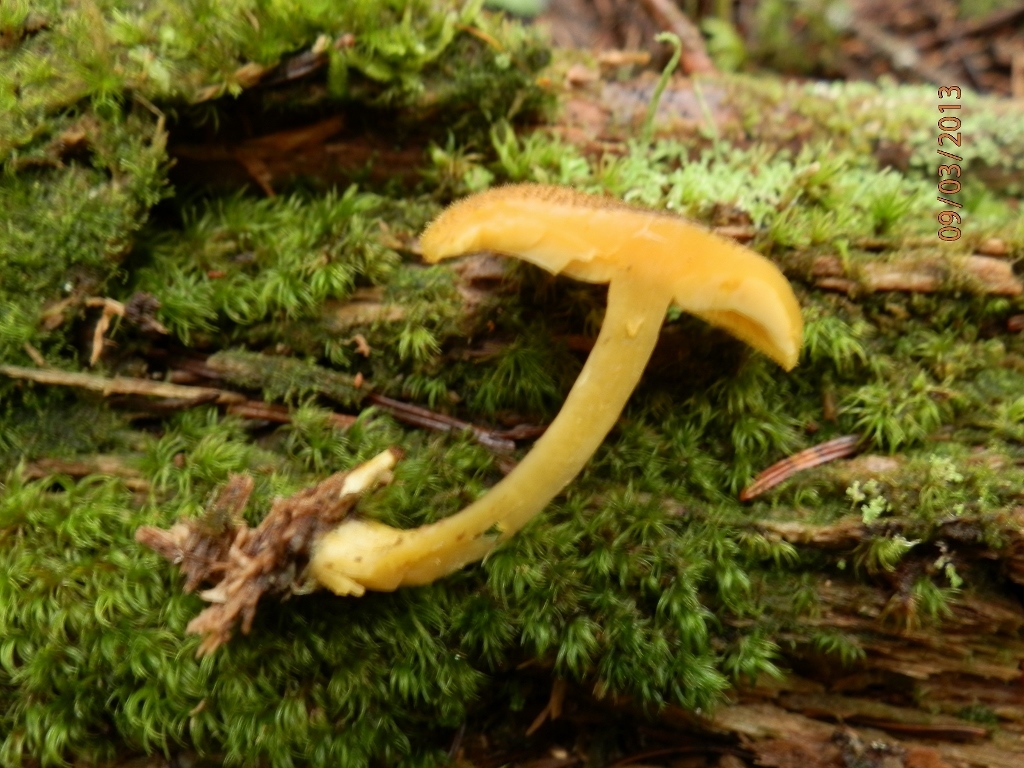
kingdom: Fungi
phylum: Basidiomycota
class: Agaricomycetes
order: Agaricales
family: Tricholomataceae
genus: Tricholomopsis
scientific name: Tricholomopsis decora
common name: Prunes and custard
